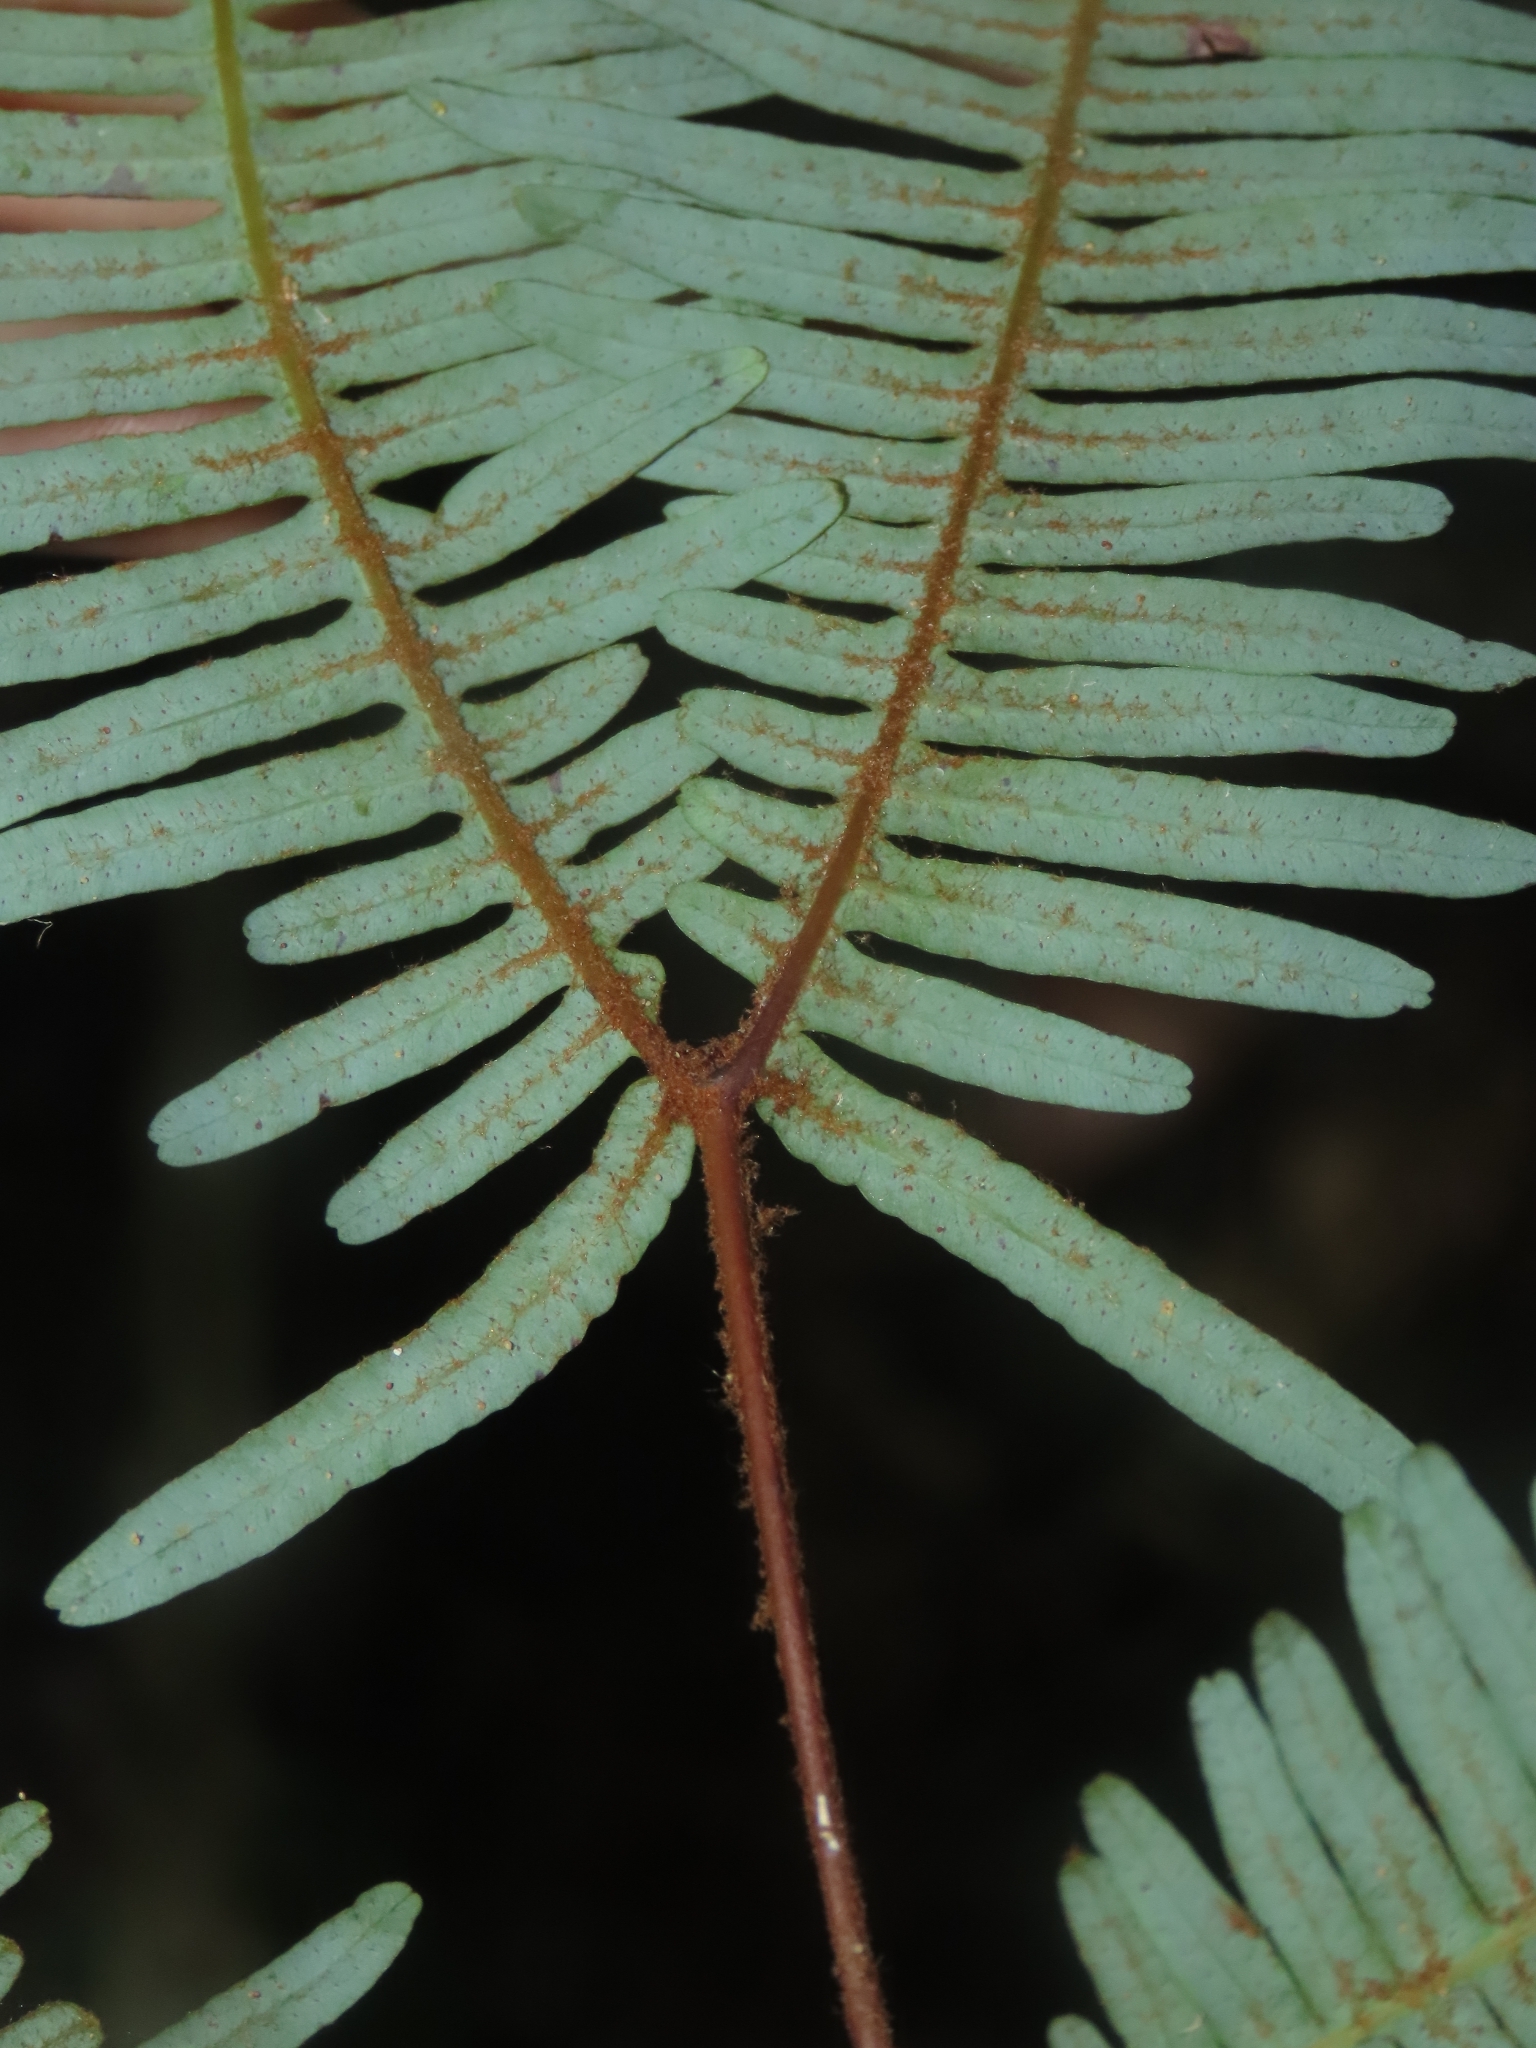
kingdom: Plantae
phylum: Tracheophyta
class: Polypodiopsida
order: Gleicheniales
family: Gleicheniaceae
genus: Dicranopteris
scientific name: Dicranopteris linearis
